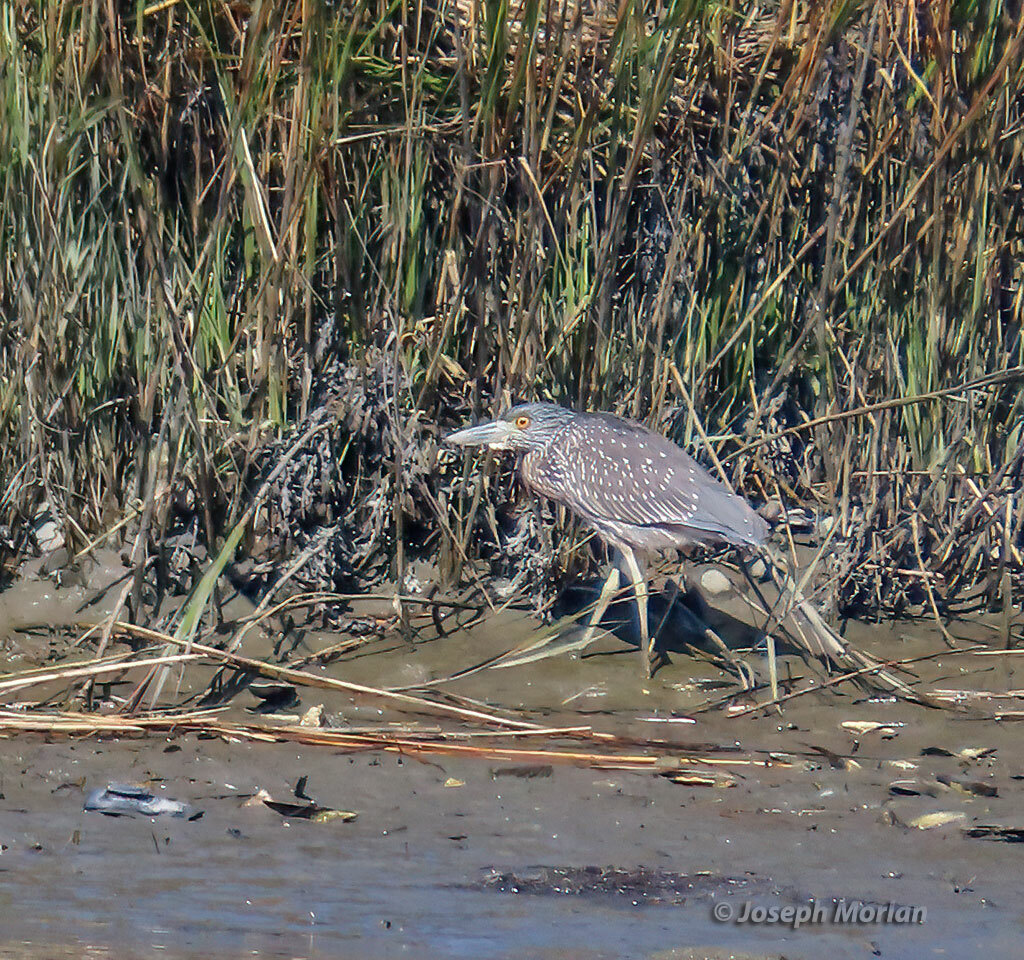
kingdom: Animalia
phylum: Chordata
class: Aves
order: Pelecaniformes
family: Ardeidae
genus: Nyctanassa
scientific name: Nyctanassa violacea
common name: Yellow-crowned night heron
